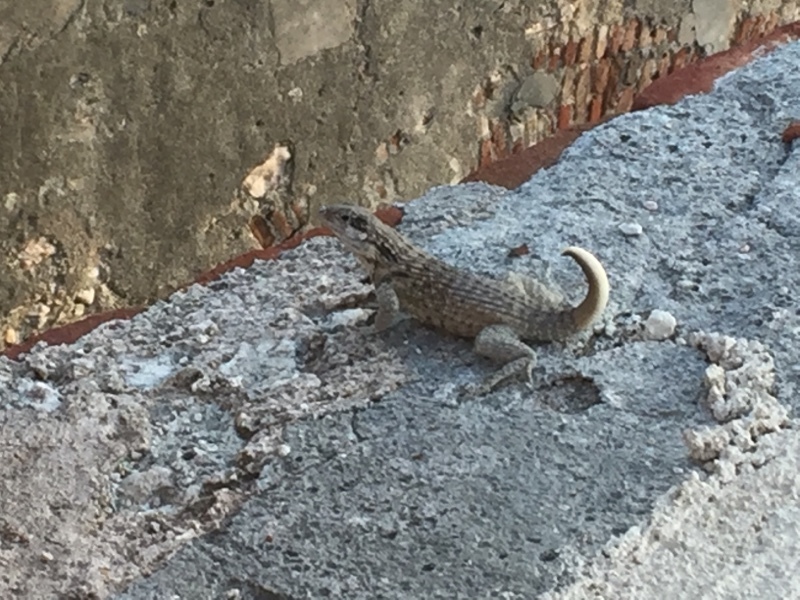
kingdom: Animalia
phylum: Chordata
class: Squamata
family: Leiocephalidae
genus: Leiocephalus
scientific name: Leiocephalus carinatus
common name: Northern curly-tailed lizard
